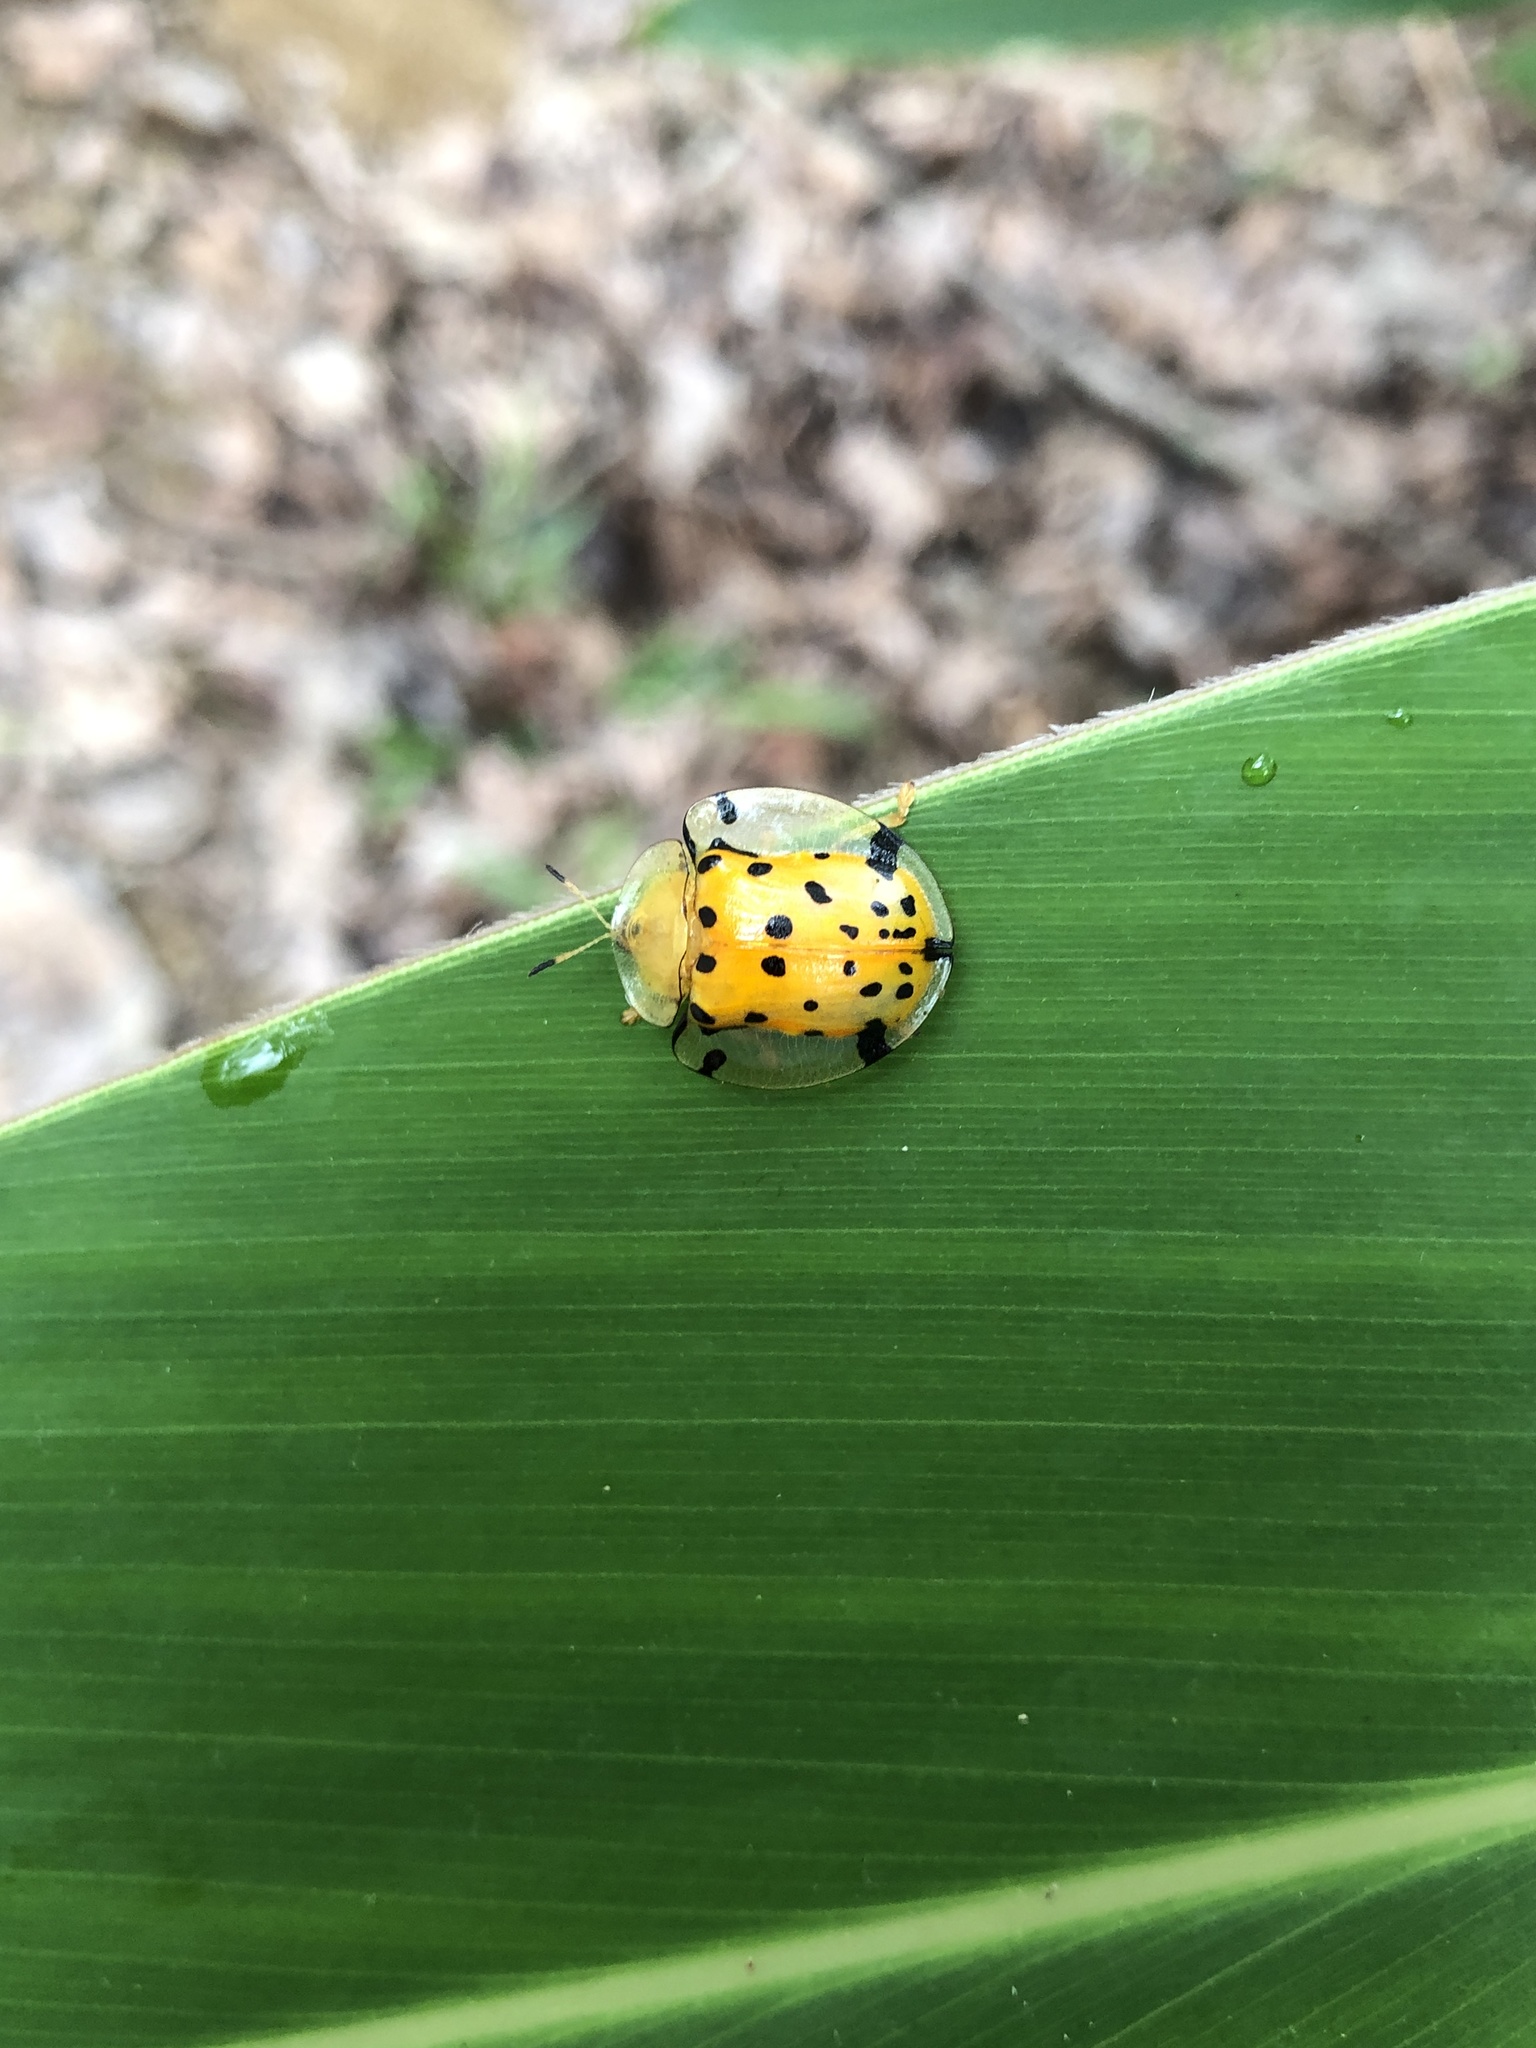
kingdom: Animalia
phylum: Arthropoda
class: Insecta
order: Coleoptera
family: Chrysomelidae
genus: Aspidimorpha
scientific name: Aspidimorpha miliaris
